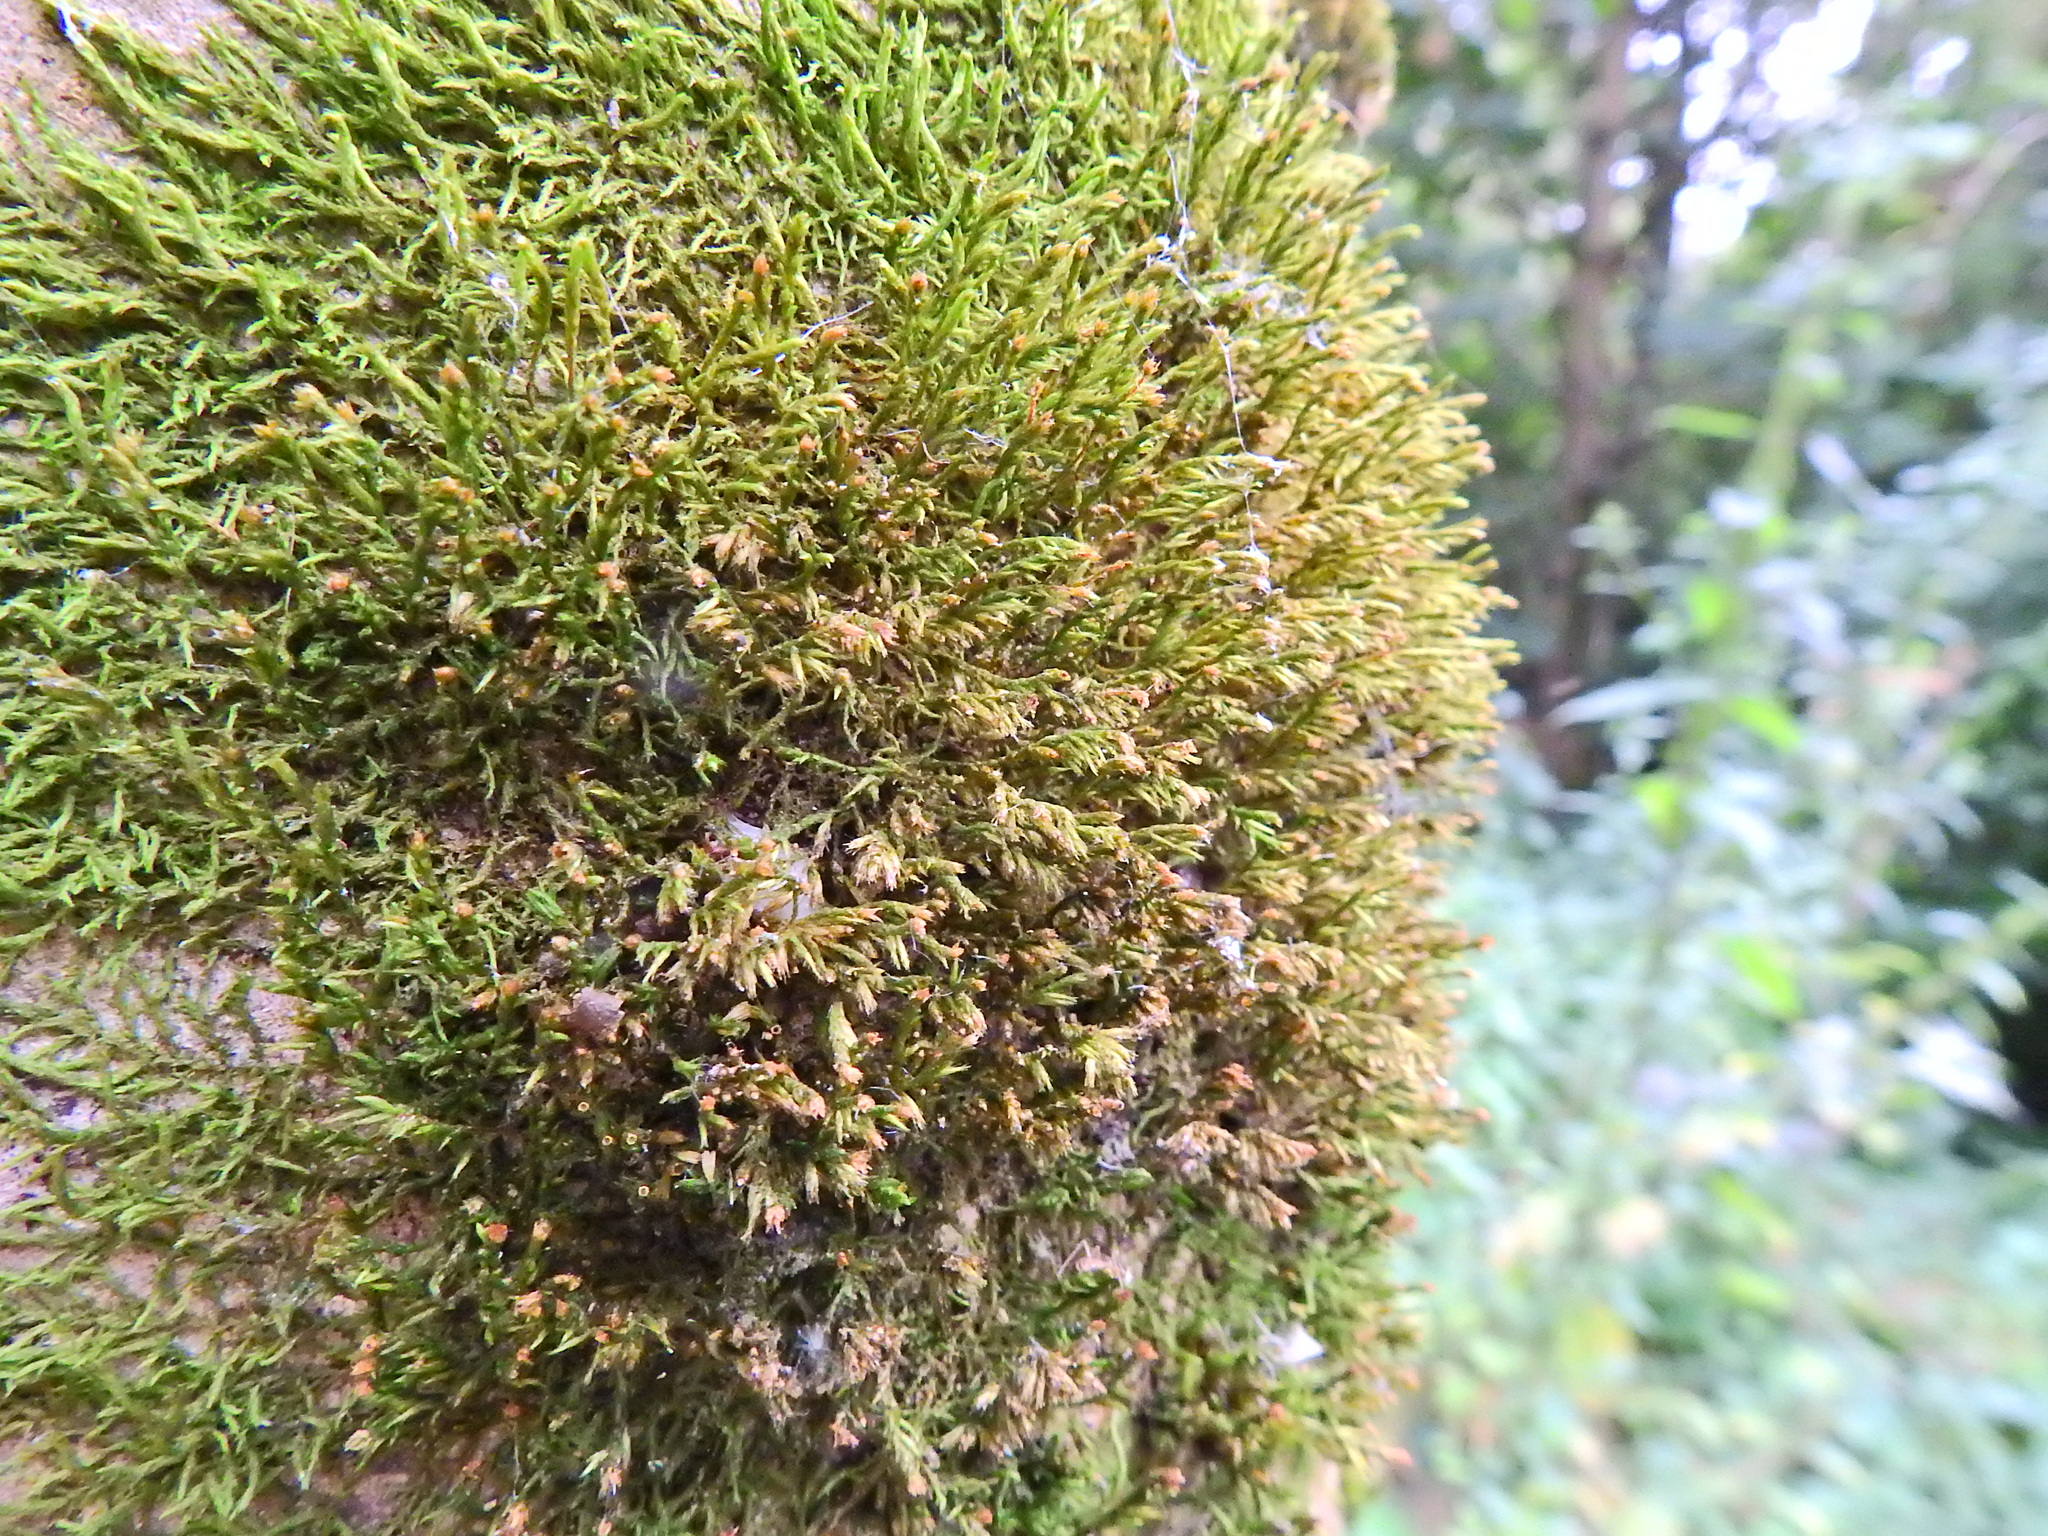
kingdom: Plantae
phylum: Bryophyta
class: Bryopsida
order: Hypnales
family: Cryphaeaceae
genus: Cryphaea
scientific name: Cryphaea heteromalla
